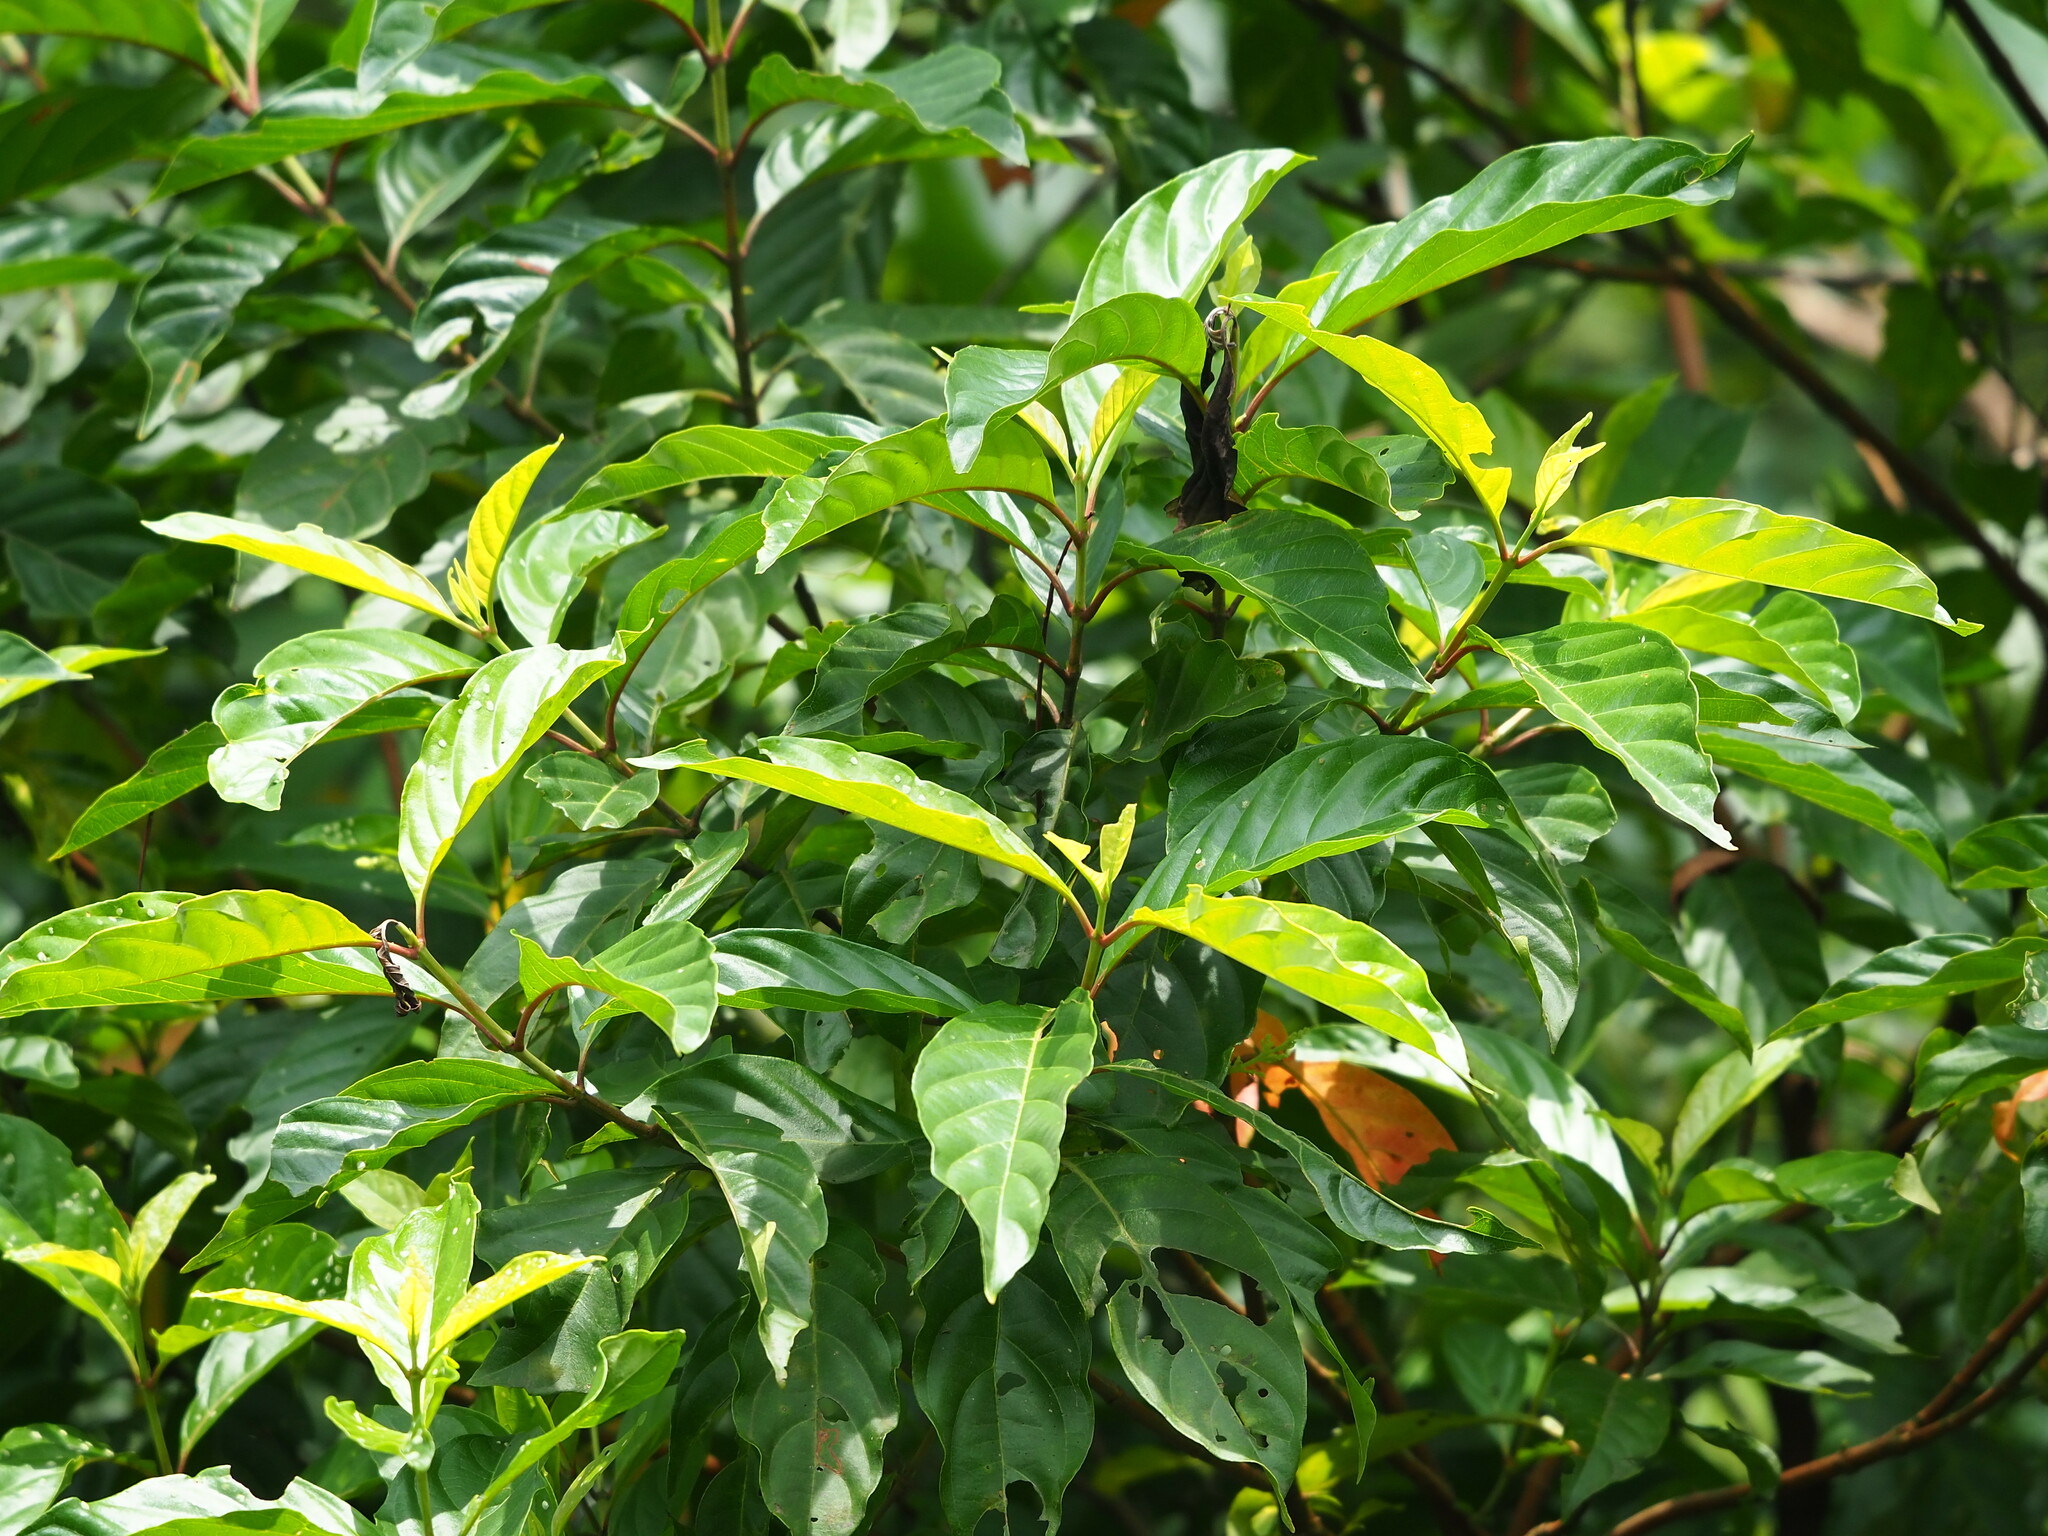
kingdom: Plantae
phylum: Tracheophyta
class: Magnoliopsida
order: Gentianales
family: Rubiaceae
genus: Wendlandia
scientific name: Wendlandia formosana
